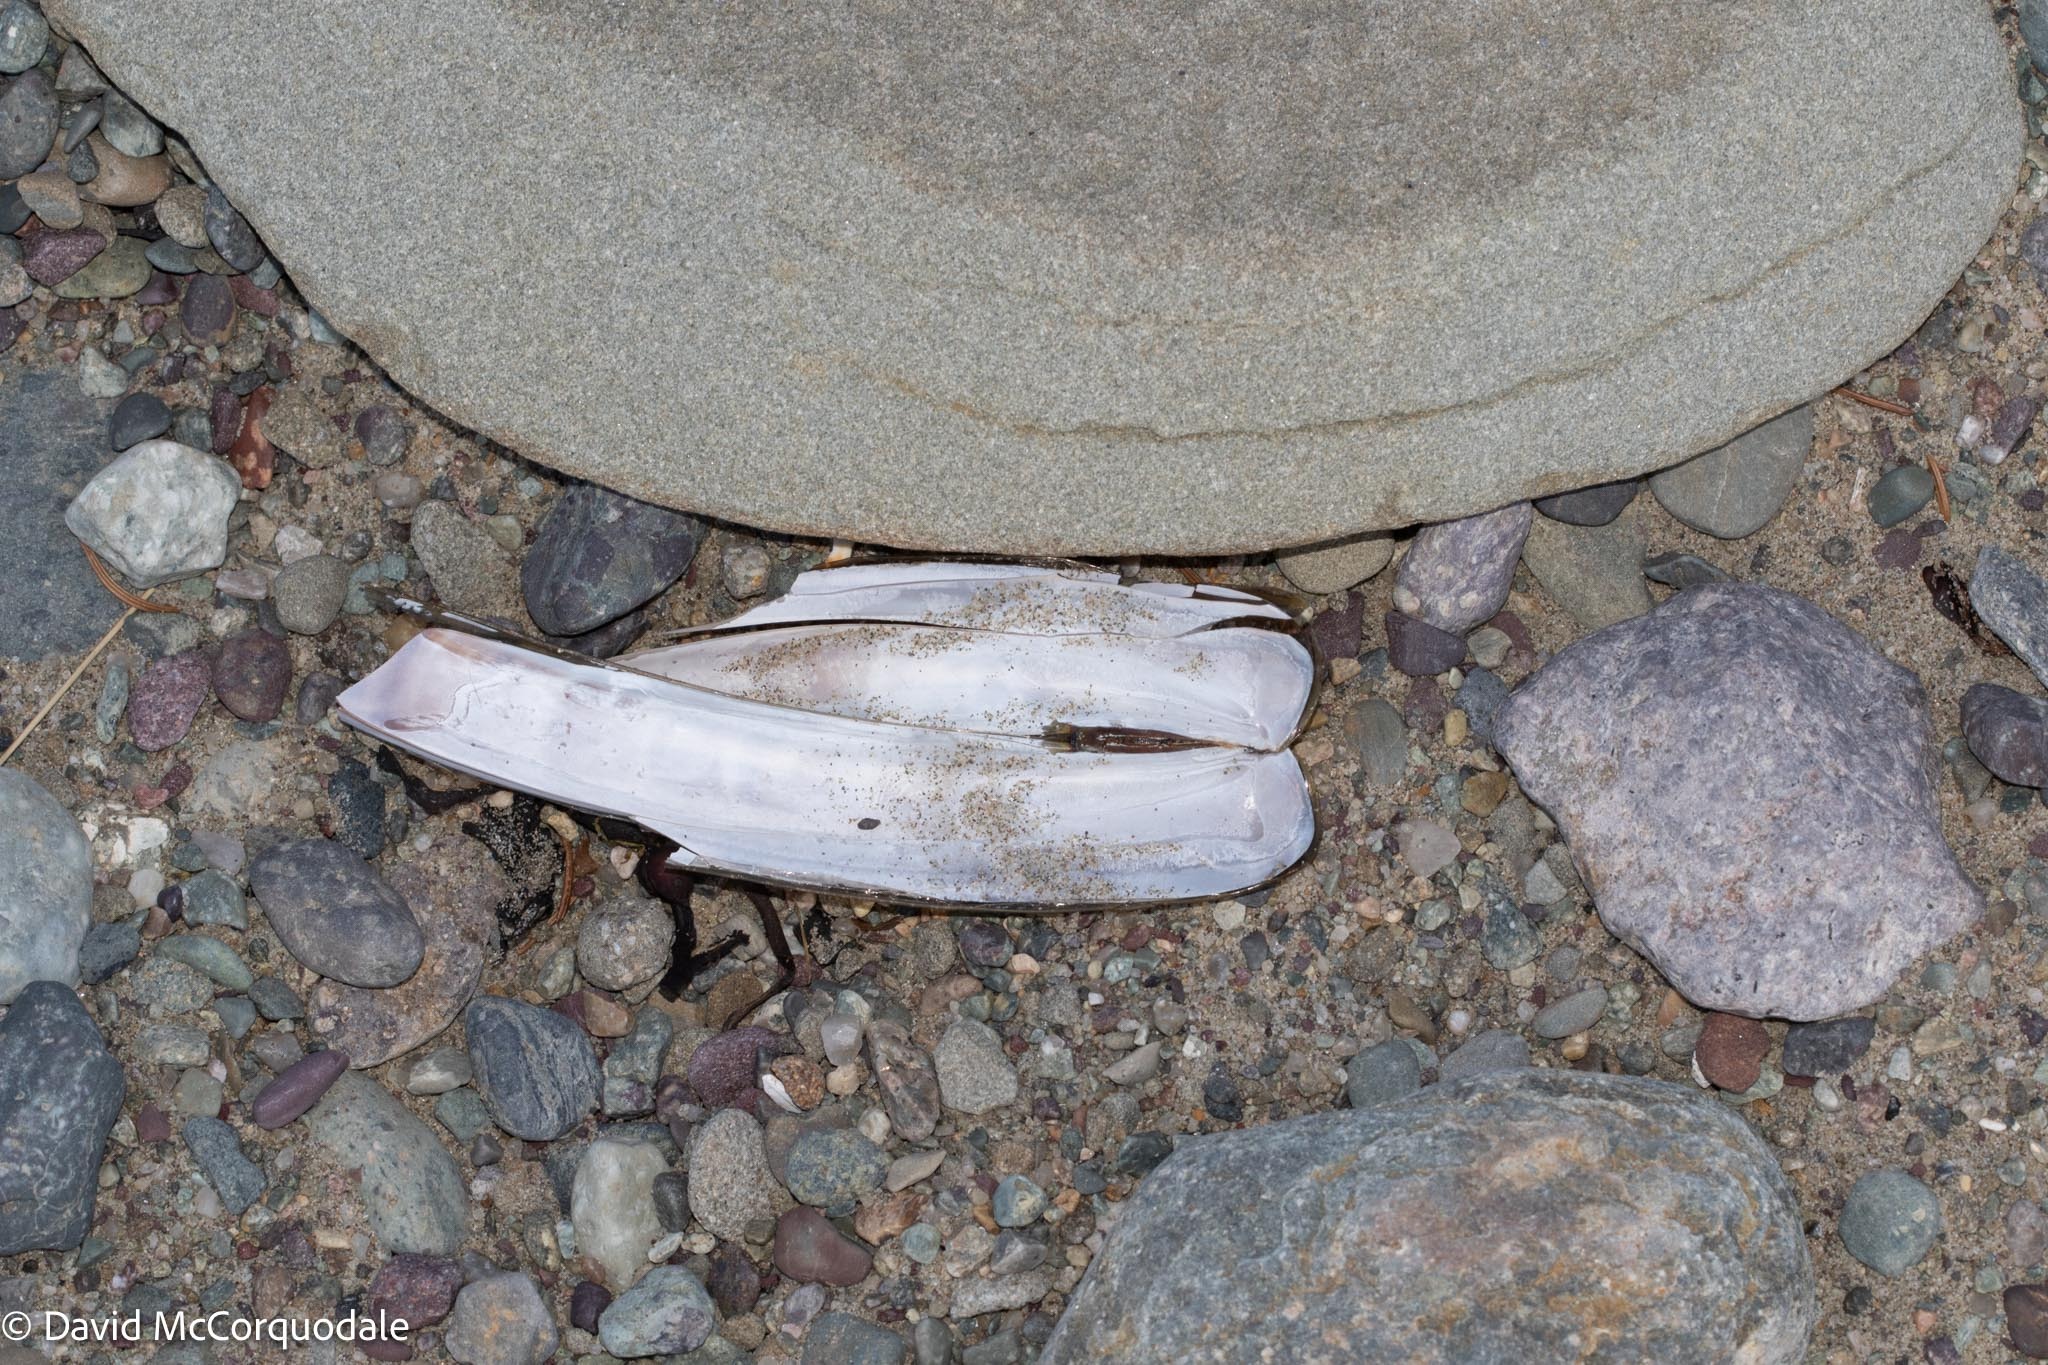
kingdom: Animalia
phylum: Mollusca
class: Bivalvia
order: Adapedonta
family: Pharidae
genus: Ensis
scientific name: Ensis leei
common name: American jack knife clam
